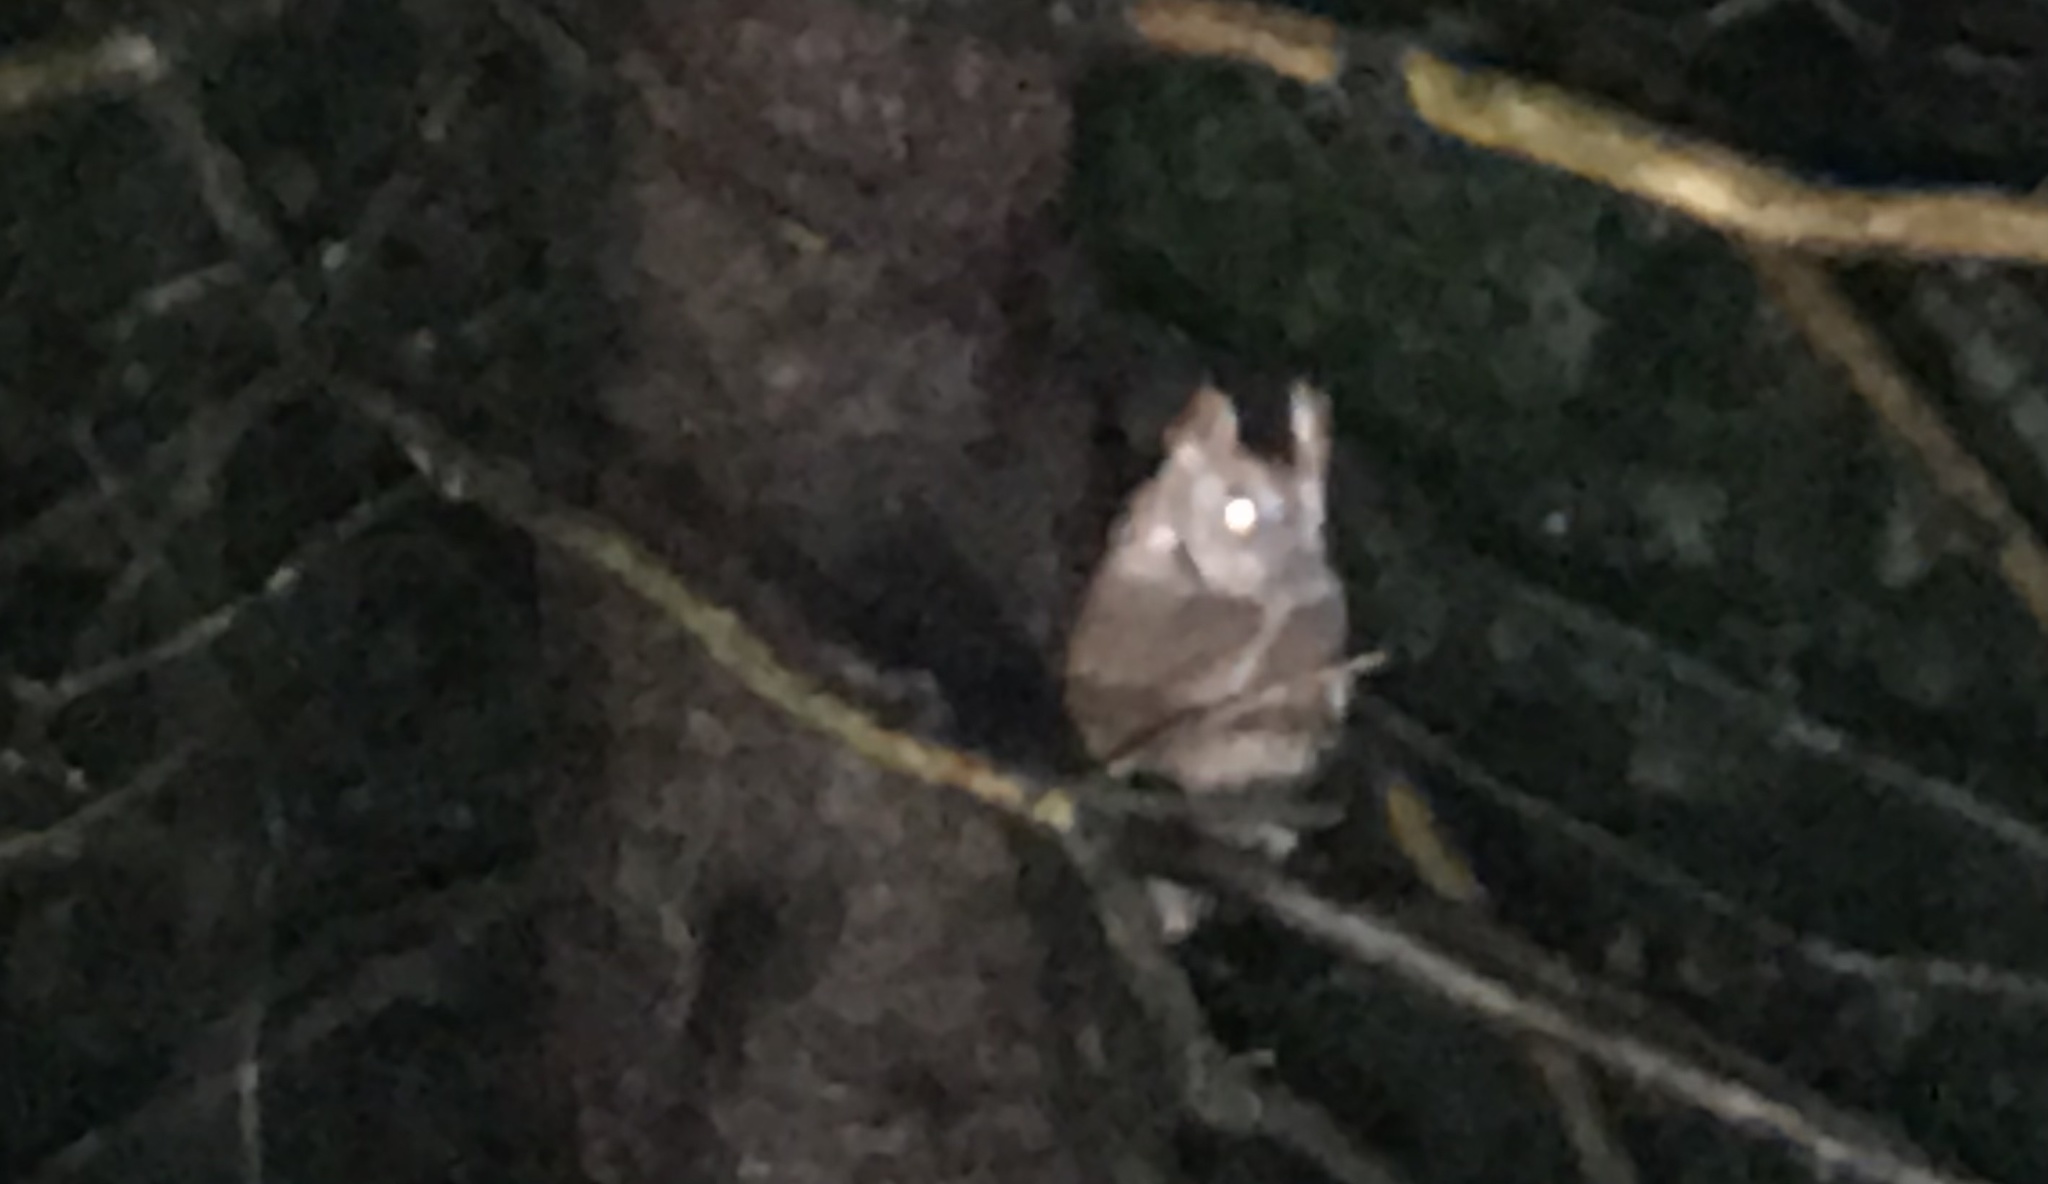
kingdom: Animalia
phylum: Chordata
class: Aves
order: Strigiformes
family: Strigidae
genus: Megascops
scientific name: Megascops asio
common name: Eastern screech-owl
